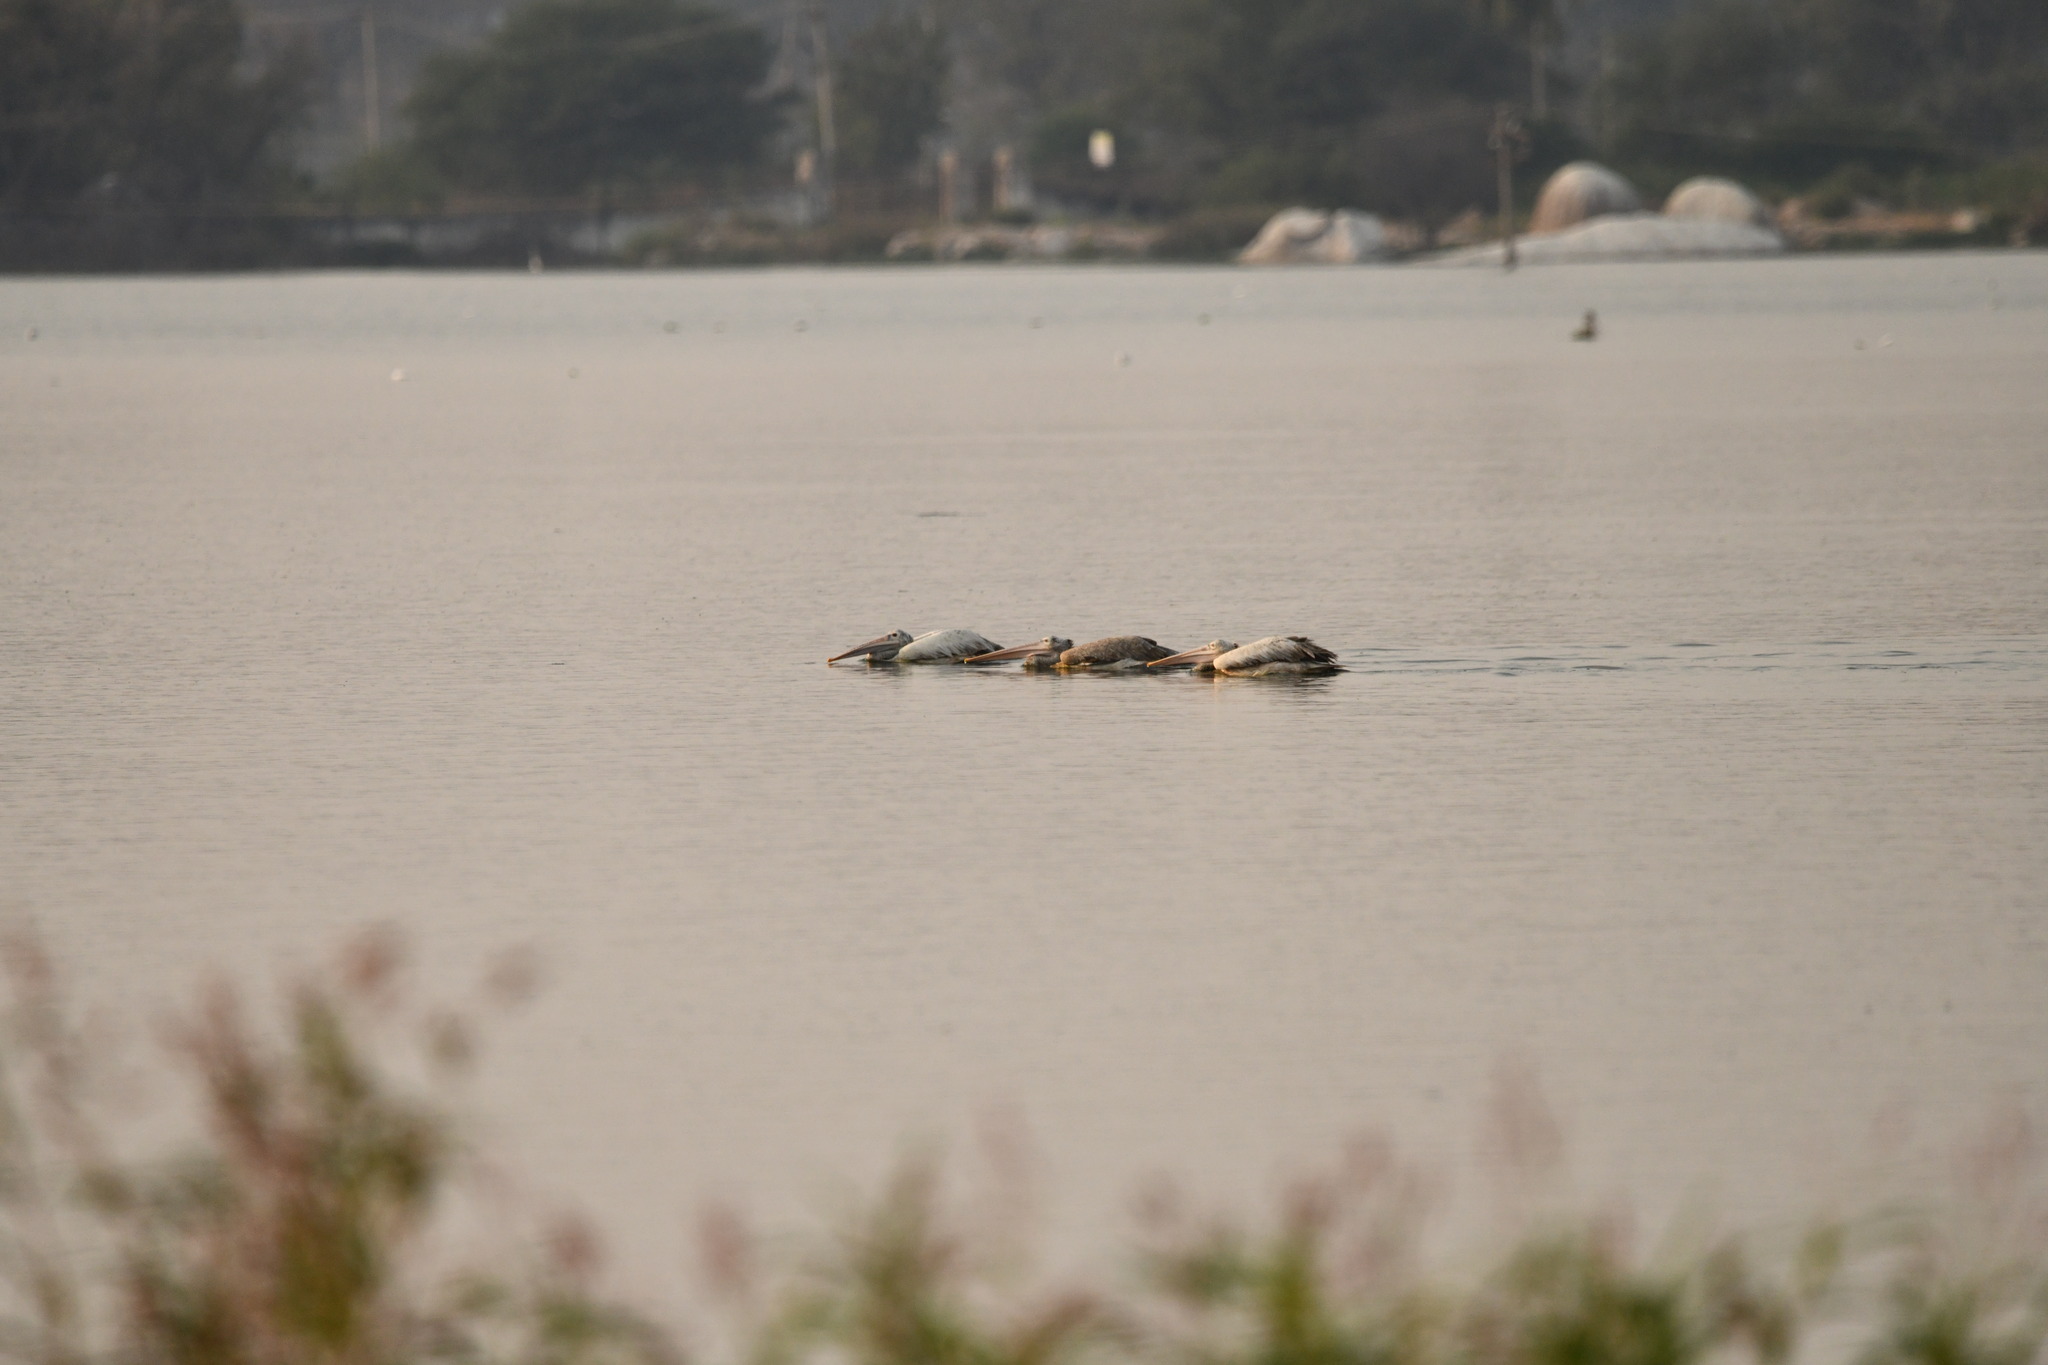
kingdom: Animalia
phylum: Chordata
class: Aves
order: Pelecaniformes
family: Pelecanidae
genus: Pelecanus
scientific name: Pelecanus philippensis
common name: Spot-billed pelican
